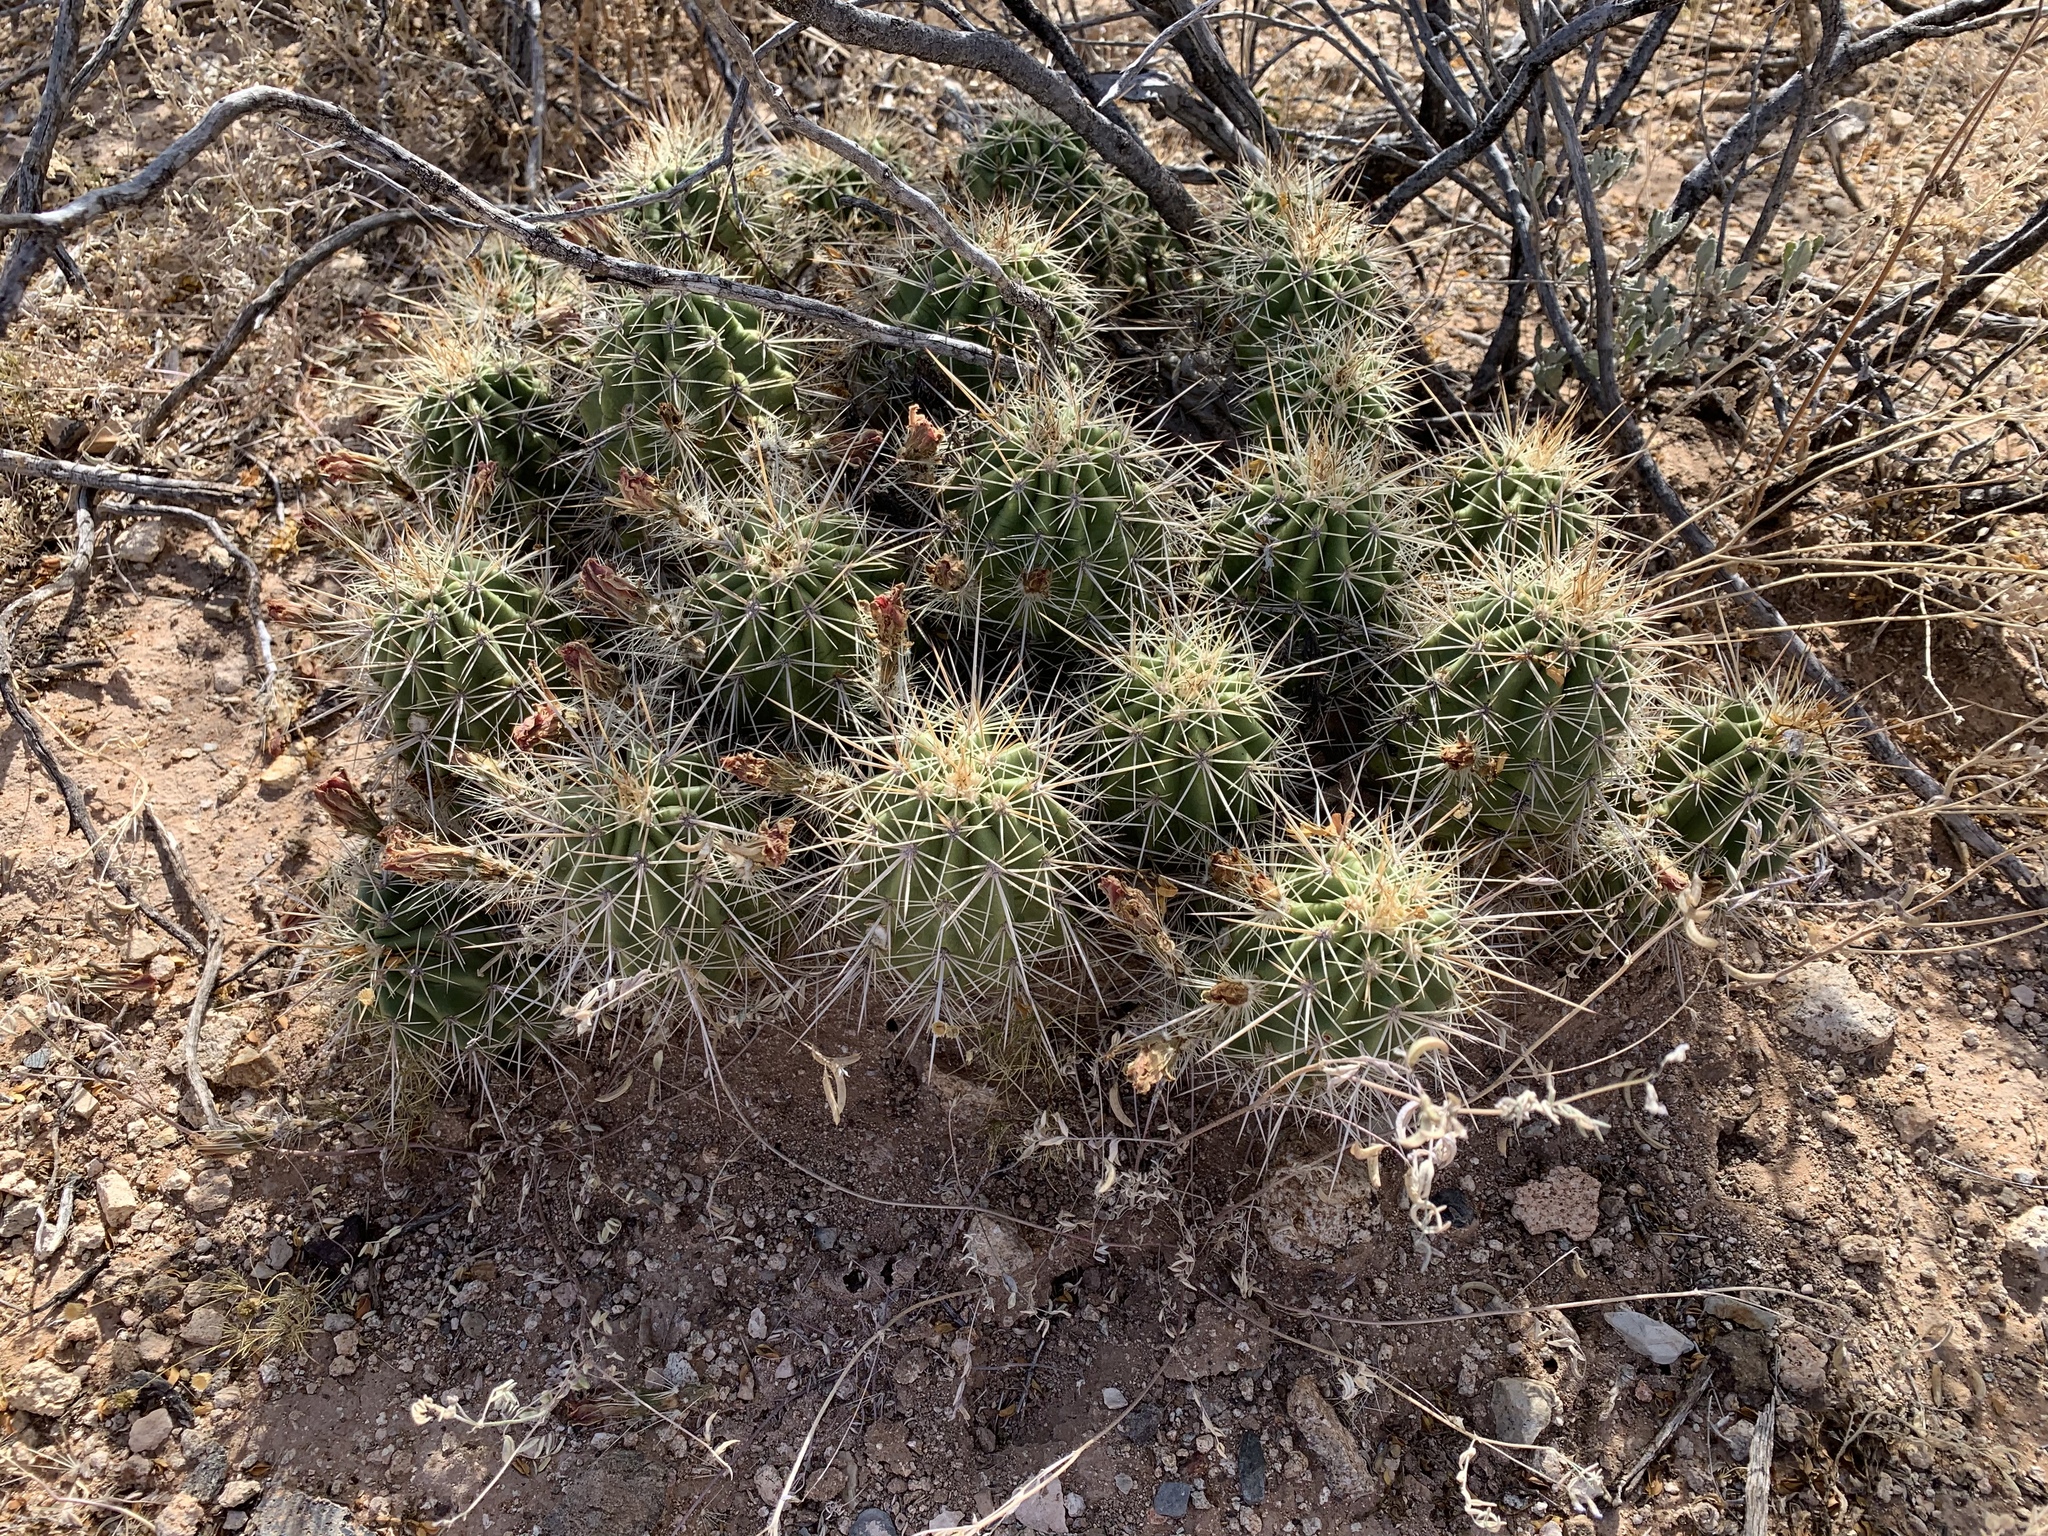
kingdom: Plantae
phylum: Tracheophyta
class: Magnoliopsida
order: Caryophyllales
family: Cactaceae
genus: Echinocereus
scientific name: Echinocereus coccineus
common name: Scarlet hedgehog cactus
